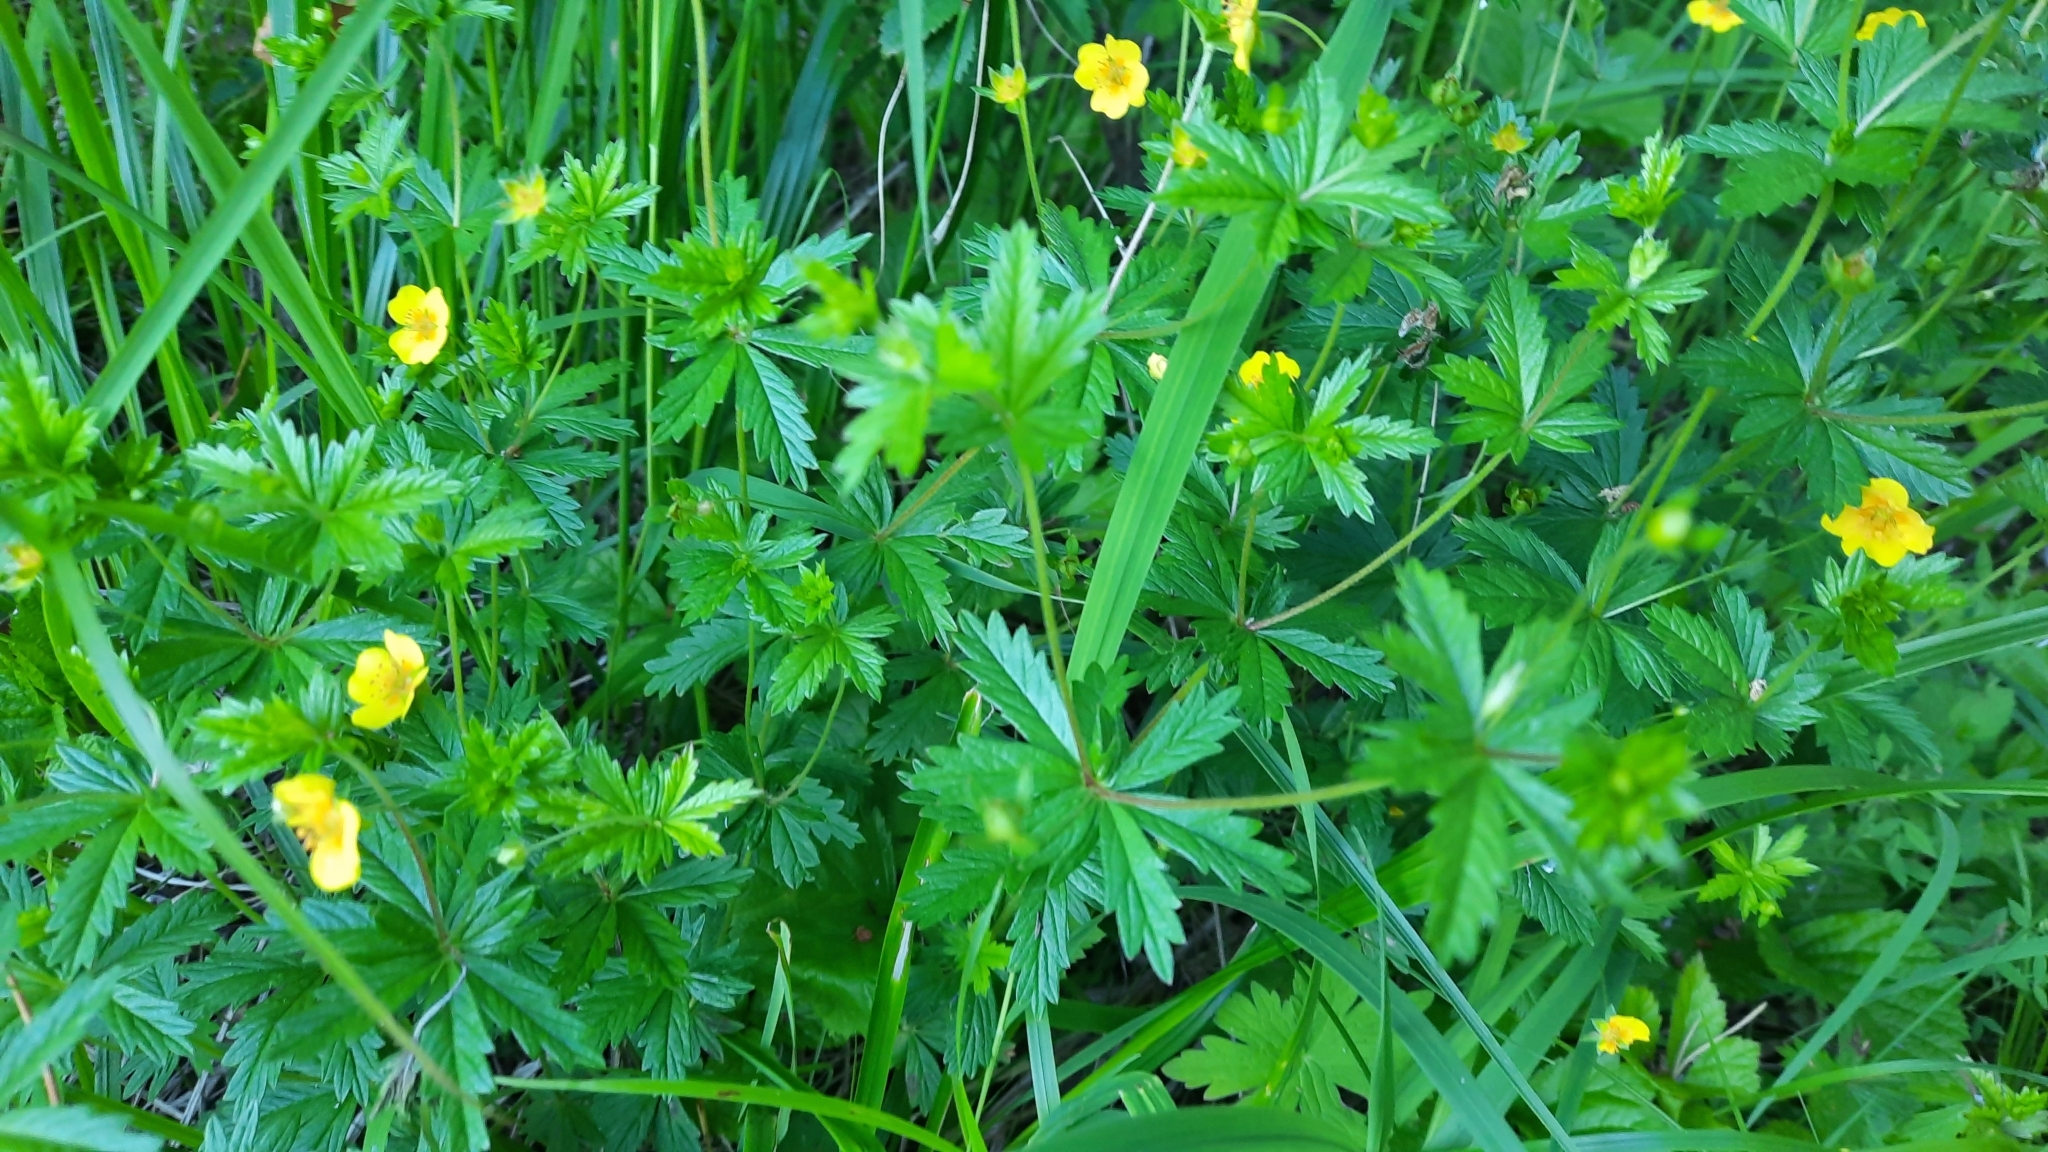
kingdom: Plantae
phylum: Tracheophyta
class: Magnoliopsida
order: Rosales
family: Rosaceae
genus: Potentilla
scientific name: Potentilla erecta
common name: Tormentil
